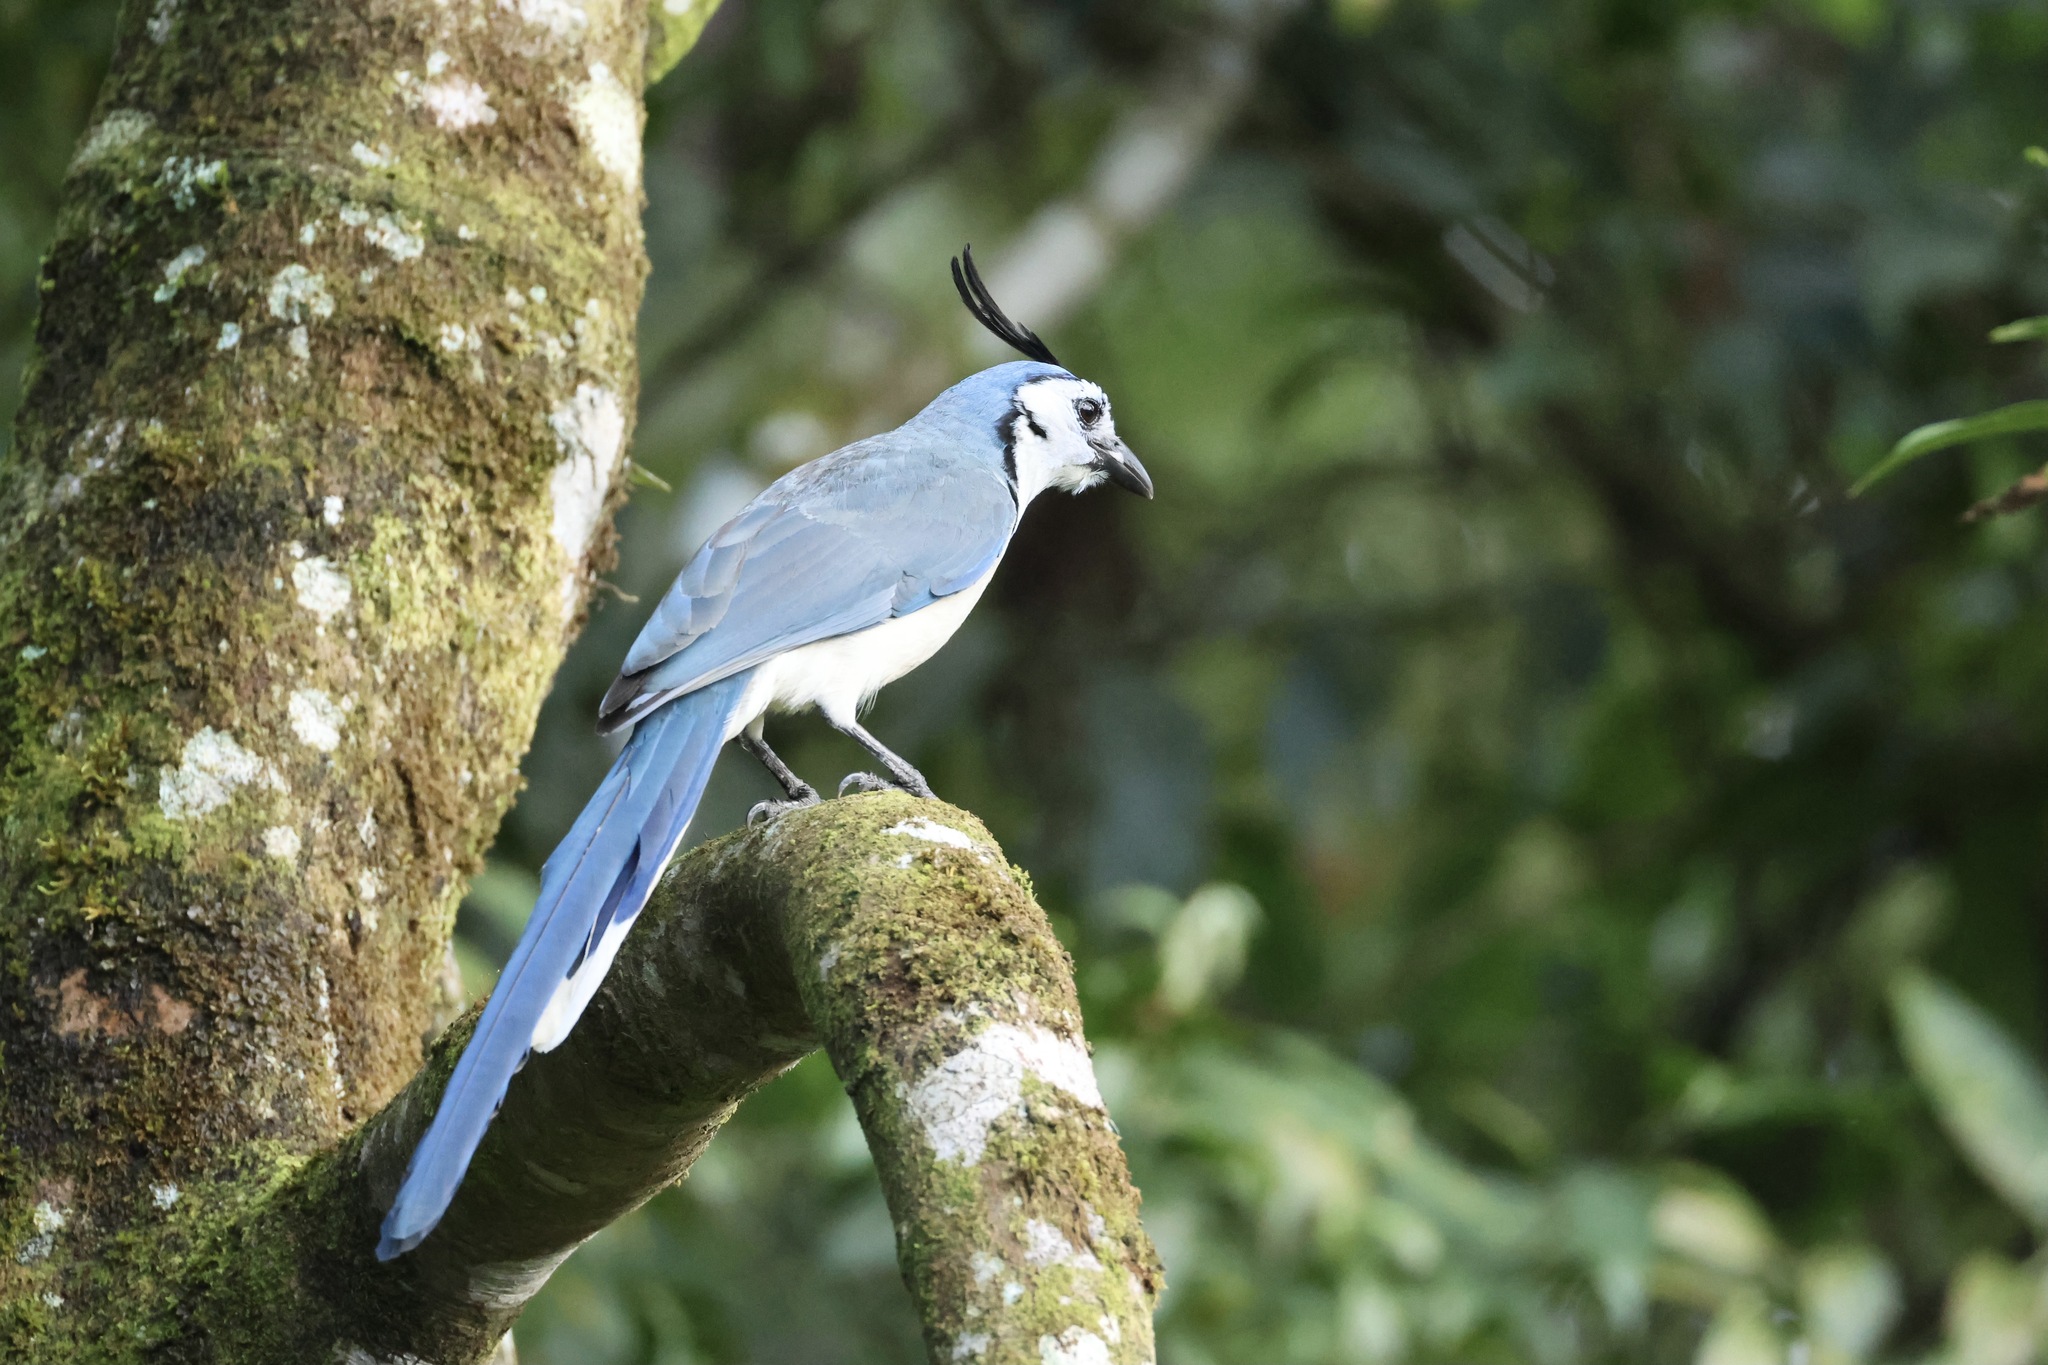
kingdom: Animalia
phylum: Chordata
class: Aves
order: Passeriformes
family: Corvidae
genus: Calocitta
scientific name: Calocitta formosa
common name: White-throated magpie-jay
